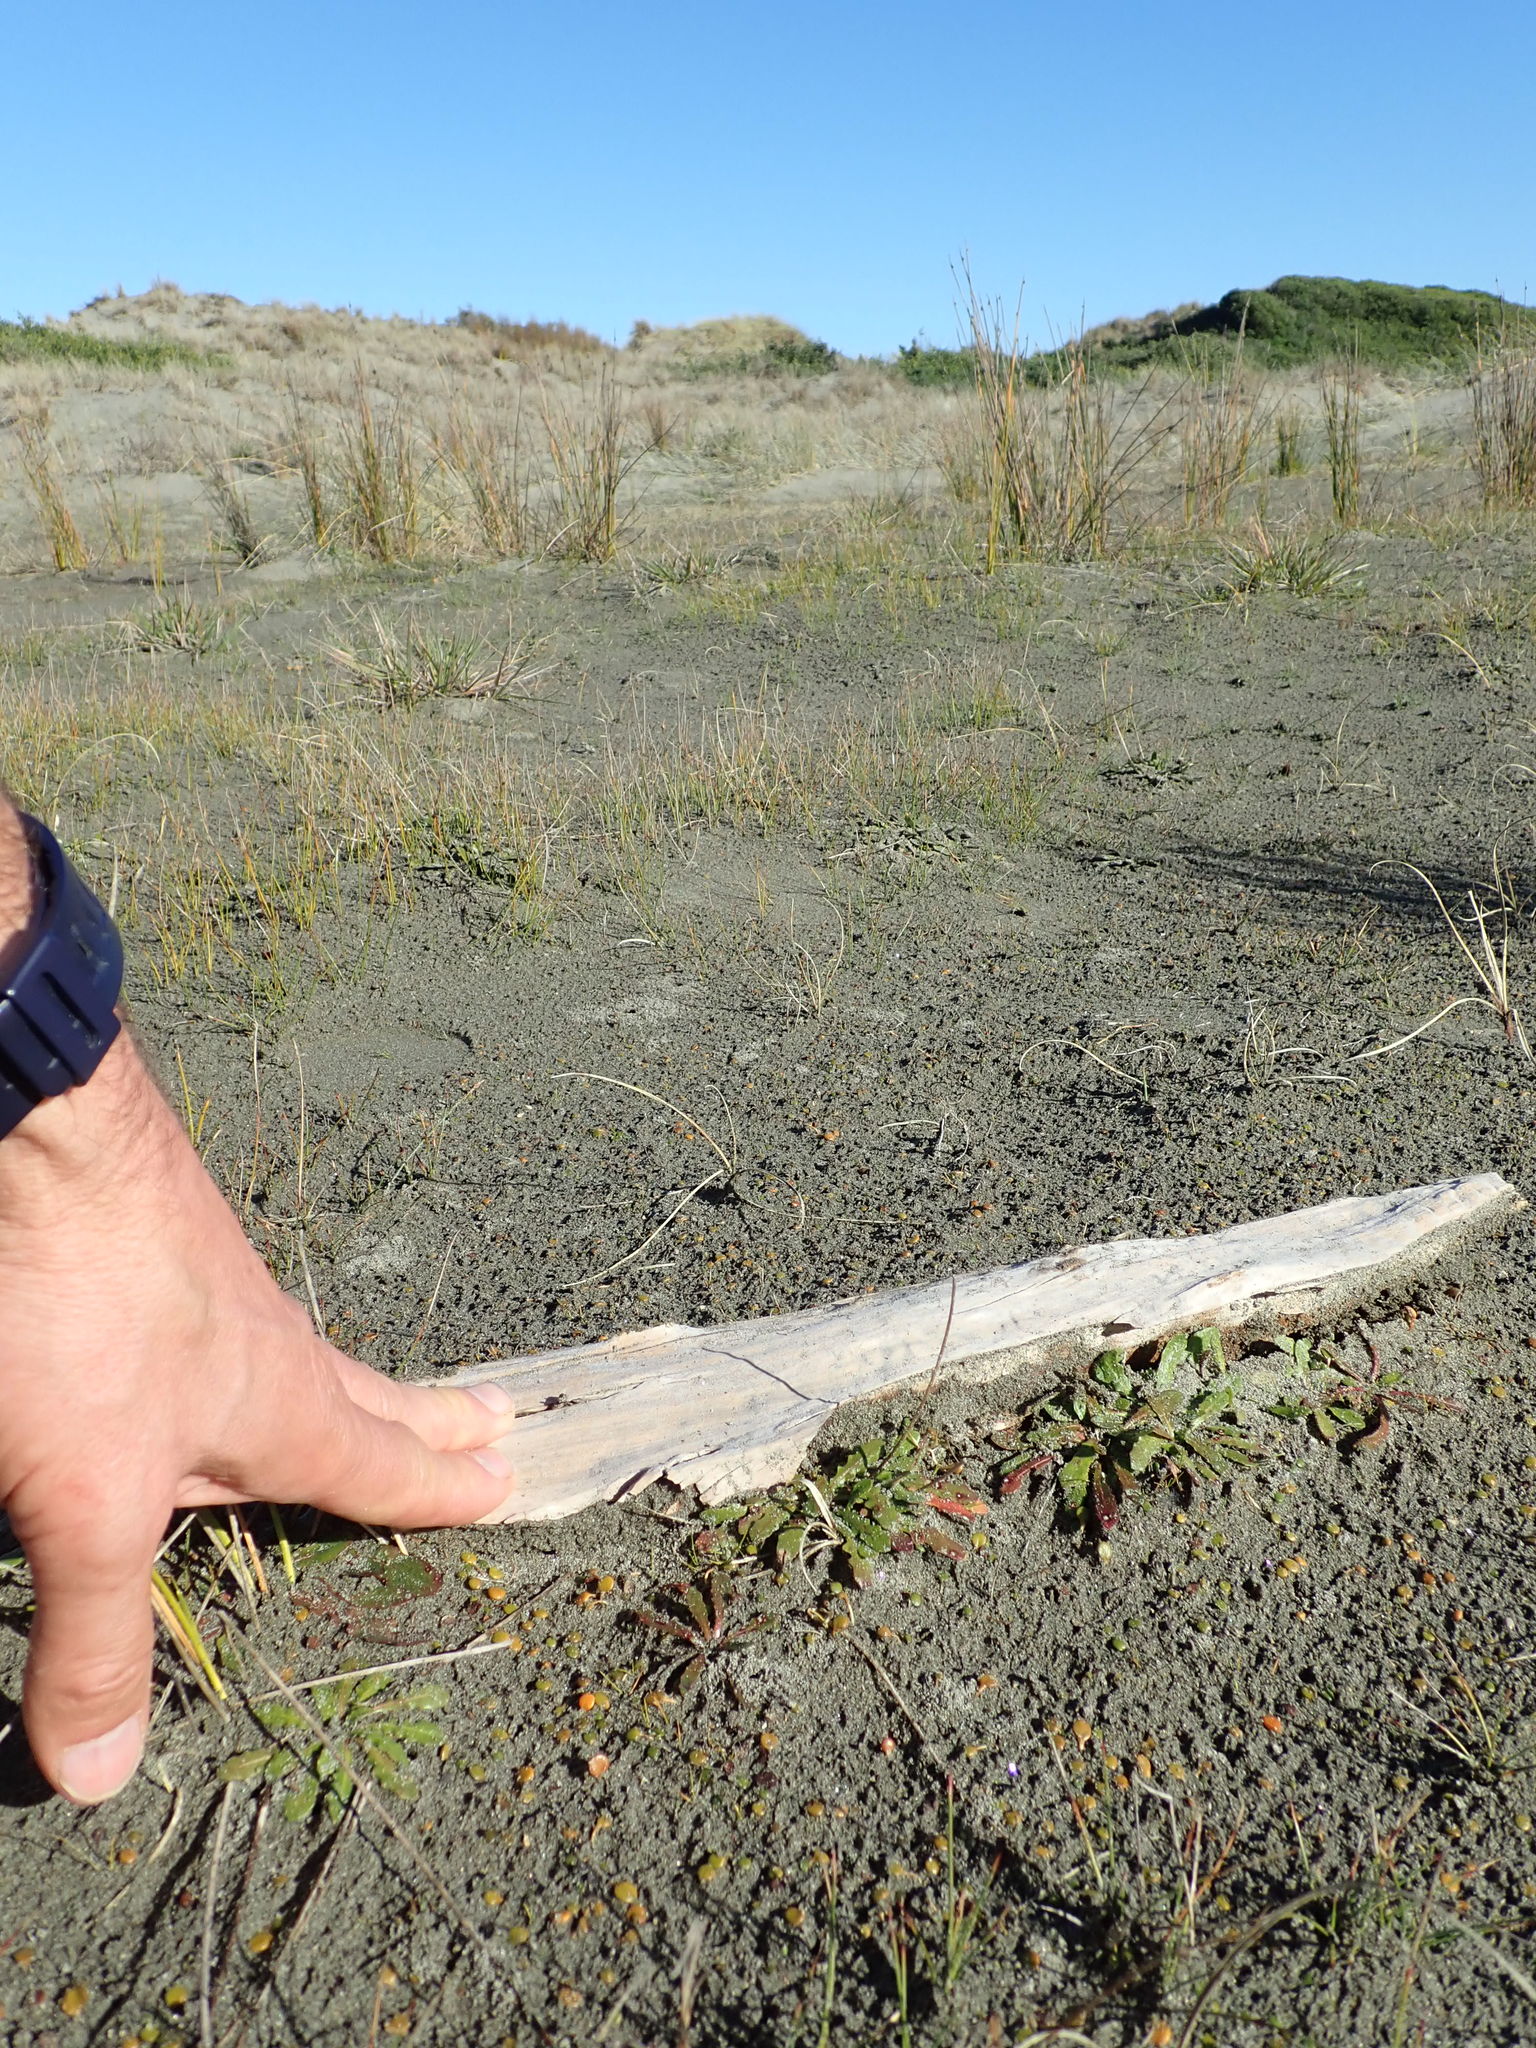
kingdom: Animalia
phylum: Arthropoda
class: Malacostraca
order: Isopoda
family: Porcellionidae
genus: Porcellio
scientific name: Porcellio scaber
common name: Common rough woodlouse
